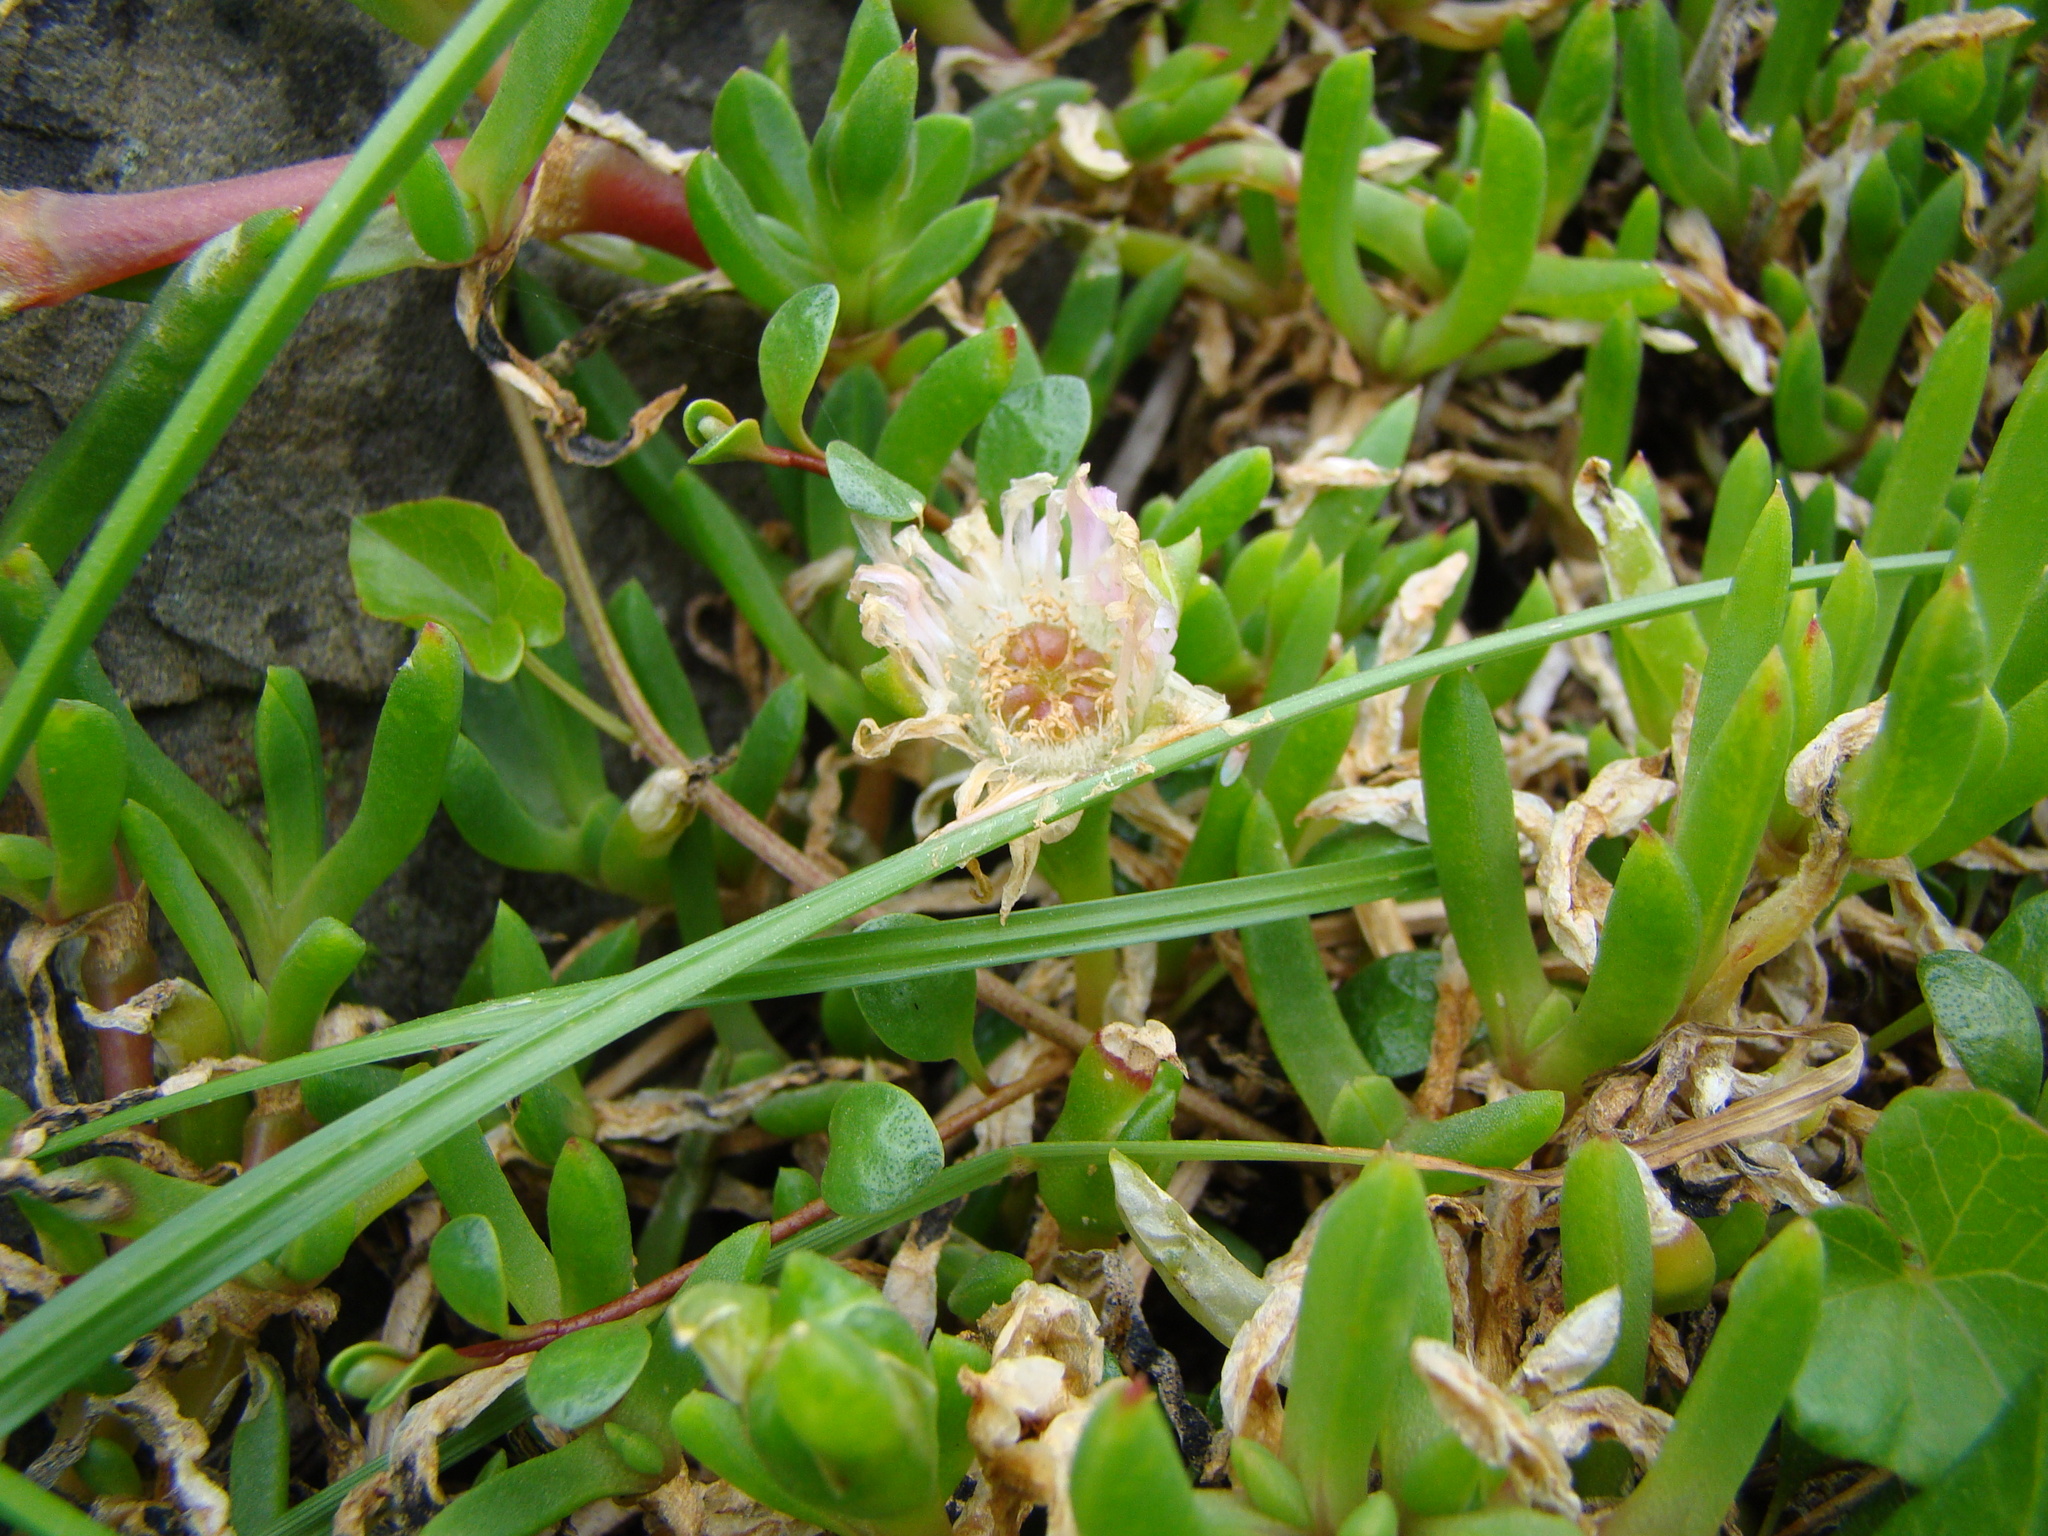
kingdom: Plantae
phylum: Tracheophyta
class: Magnoliopsida
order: Caryophyllales
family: Aizoaceae
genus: Disphyma
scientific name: Disphyma australe
